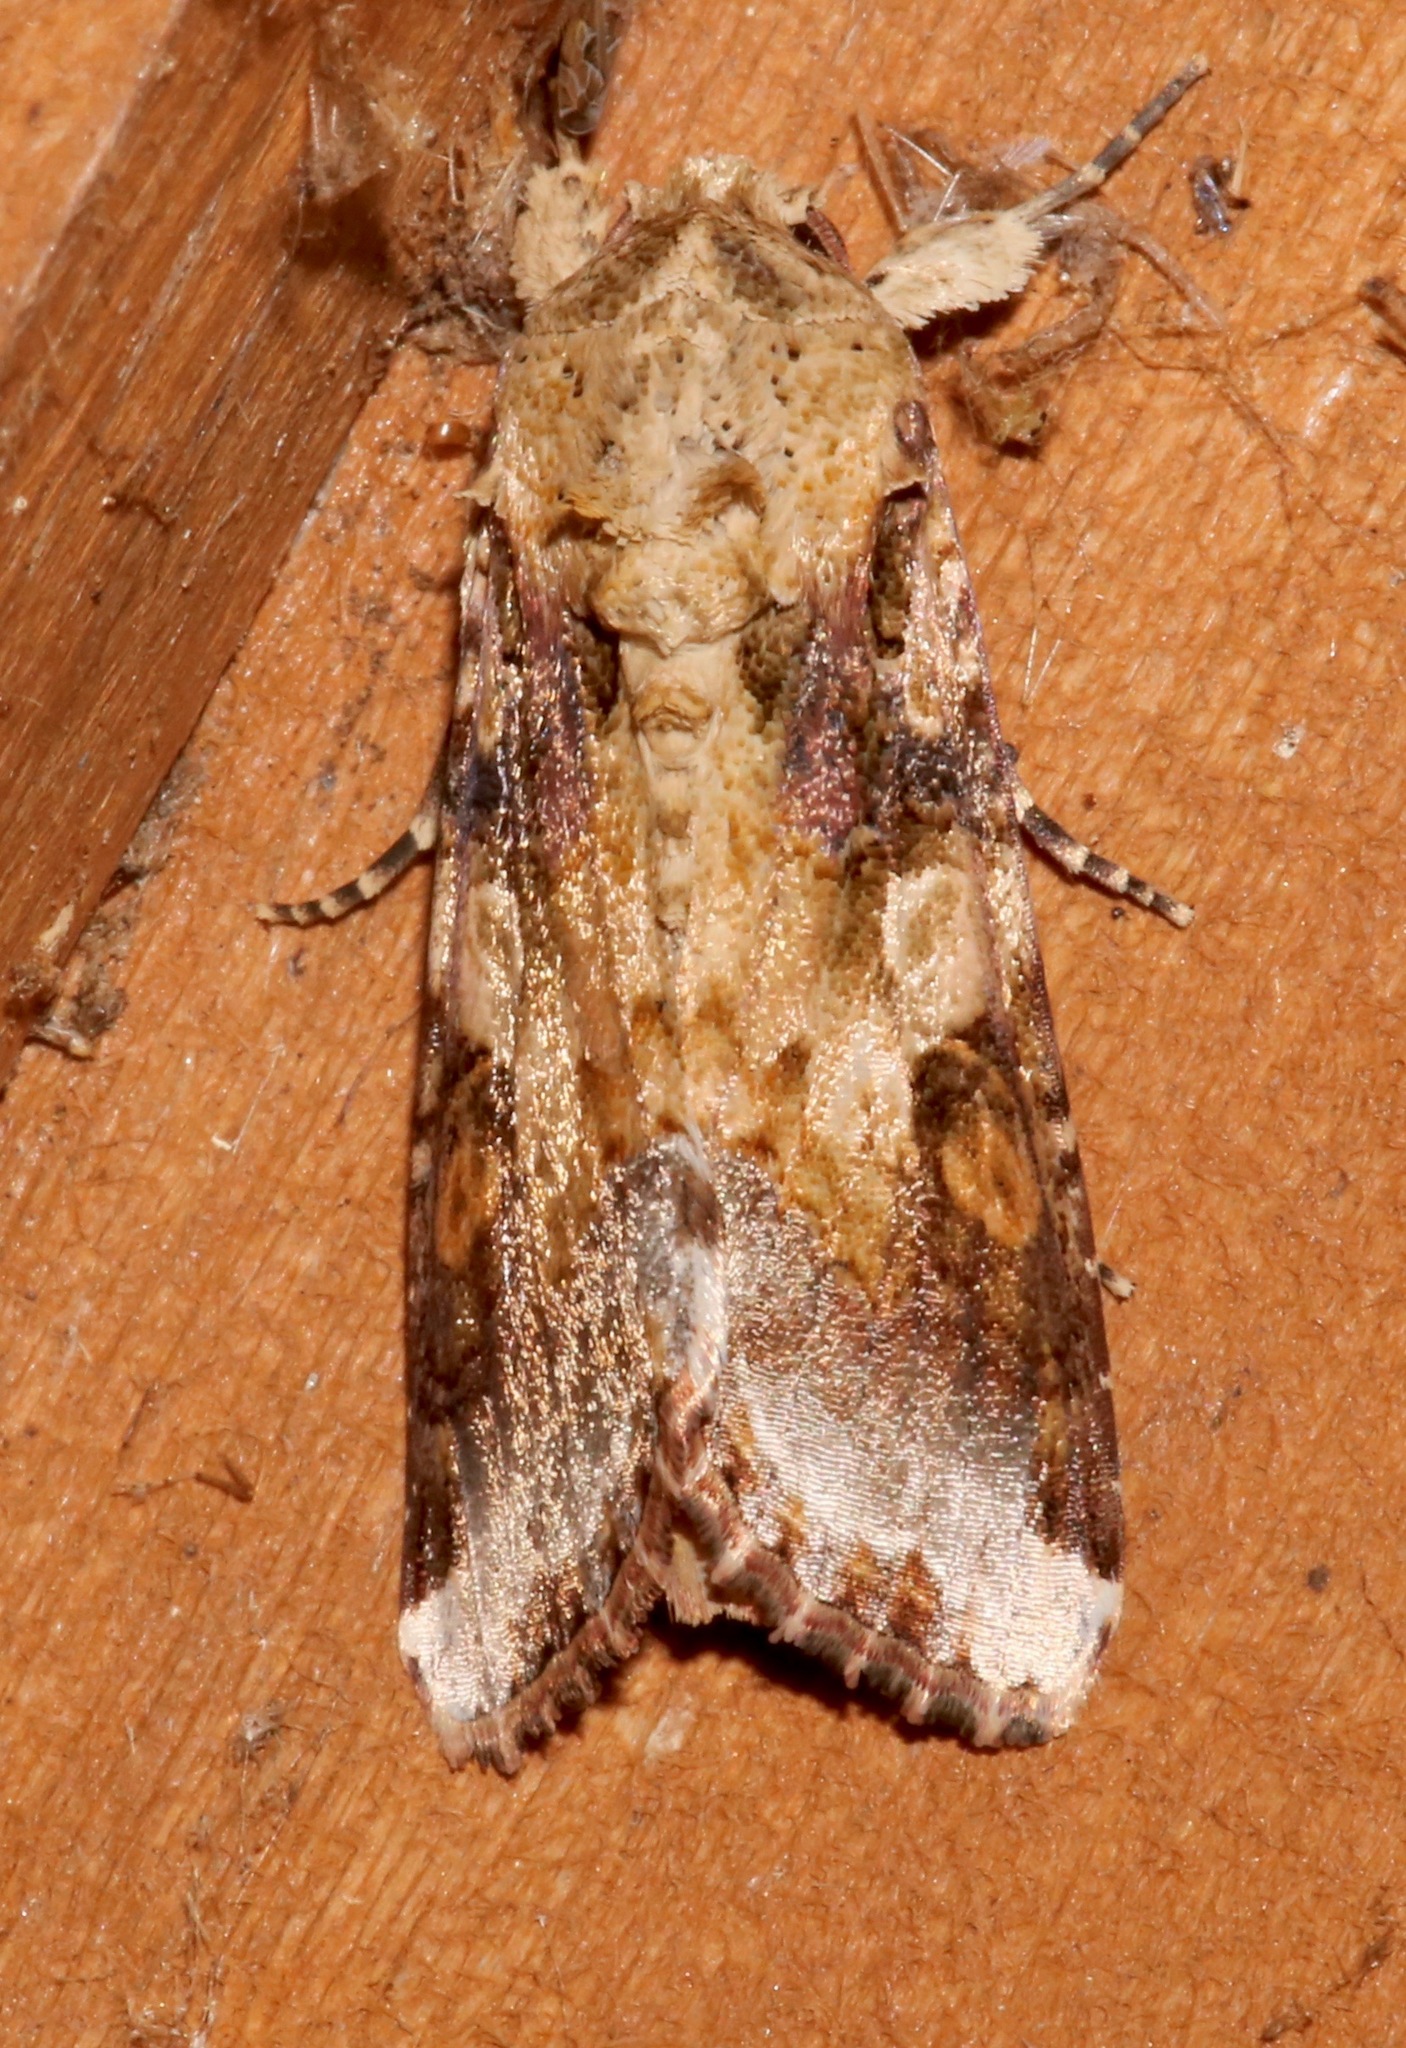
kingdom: Animalia
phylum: Arthropoda
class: Insecta
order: Lepidoptera
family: Noctuidae
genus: Spodoptera
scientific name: Spodoptera latifascia
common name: Velvet armyworm moth
